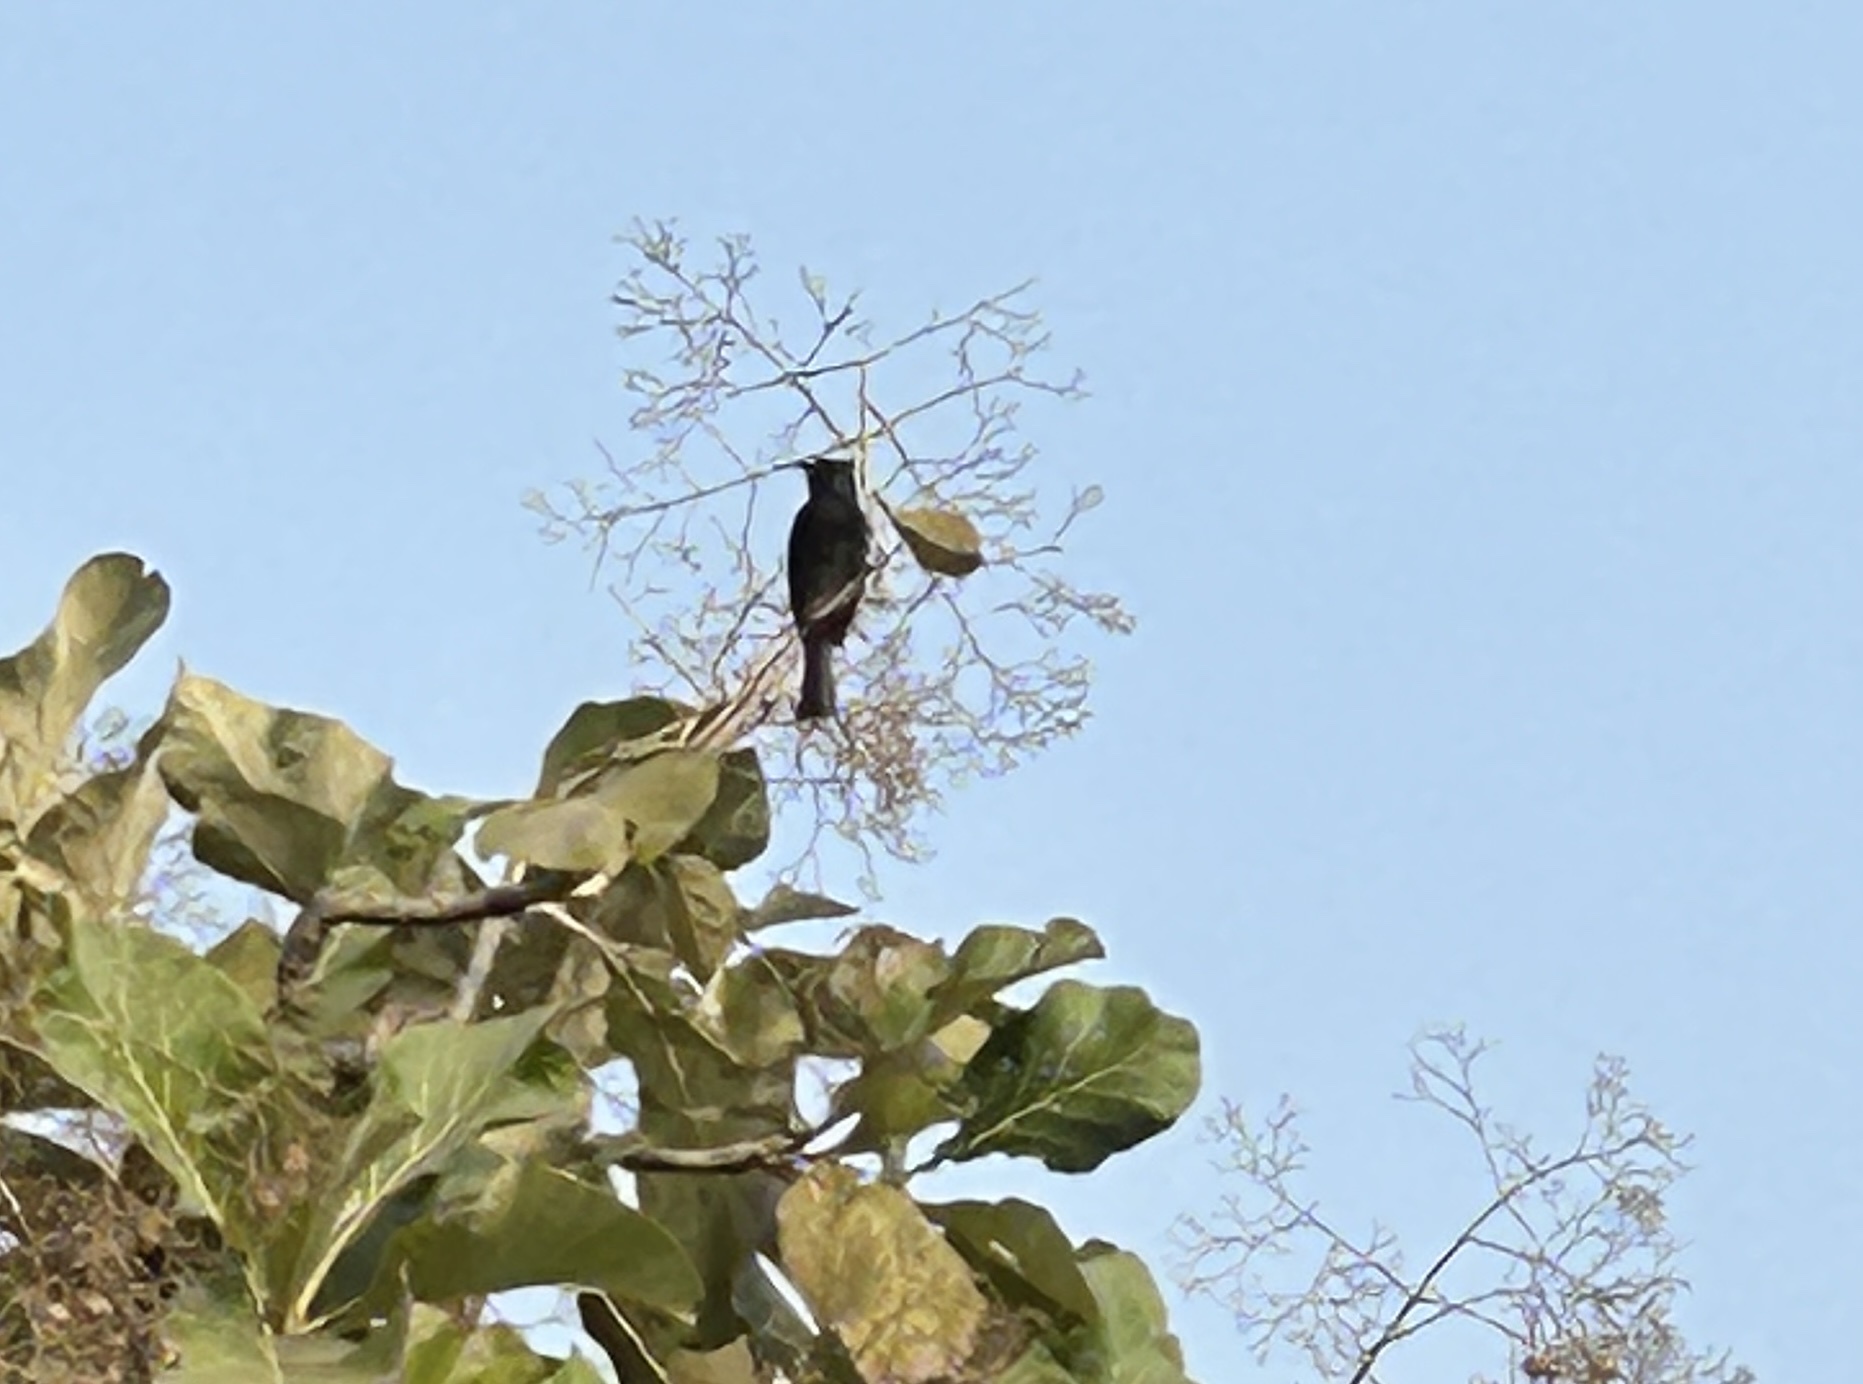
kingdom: Animalia
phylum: Chordata
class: Aves
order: Passeriformes
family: Pycnonotidae
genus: Pycnonotus
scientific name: Pycnonotus cafer
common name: Red-vented bulbul
